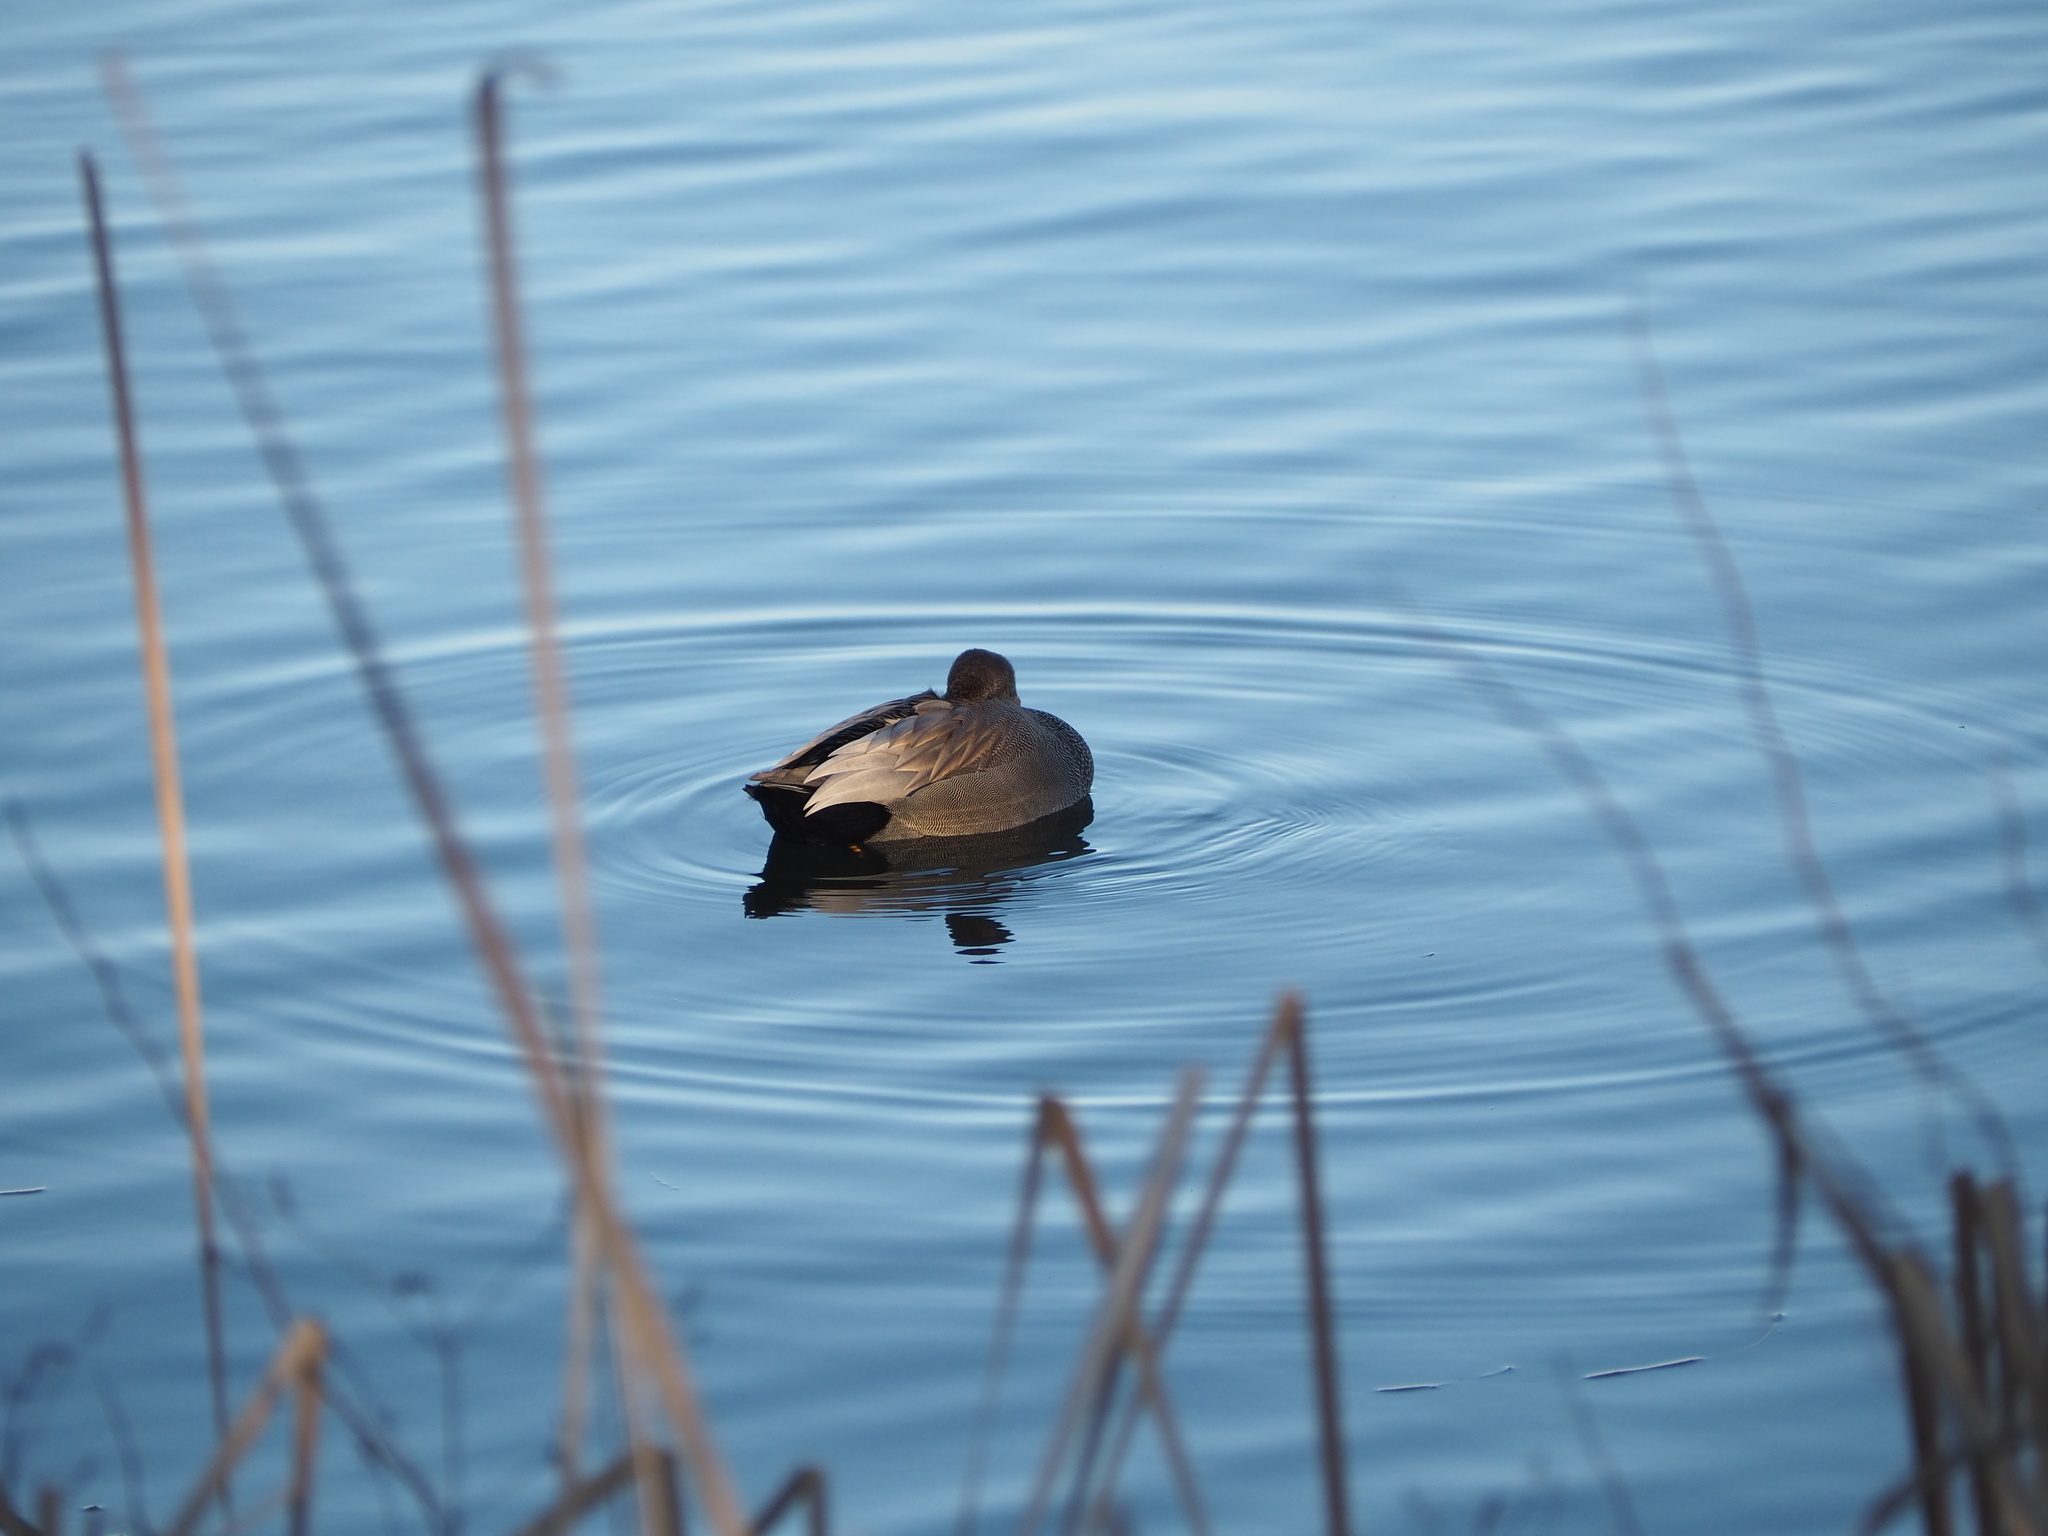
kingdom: Animalia
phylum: Chordata
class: Aves
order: Anseriformes
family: Anatidae
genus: Mareca
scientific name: Mareca strepera
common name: Gadwall
